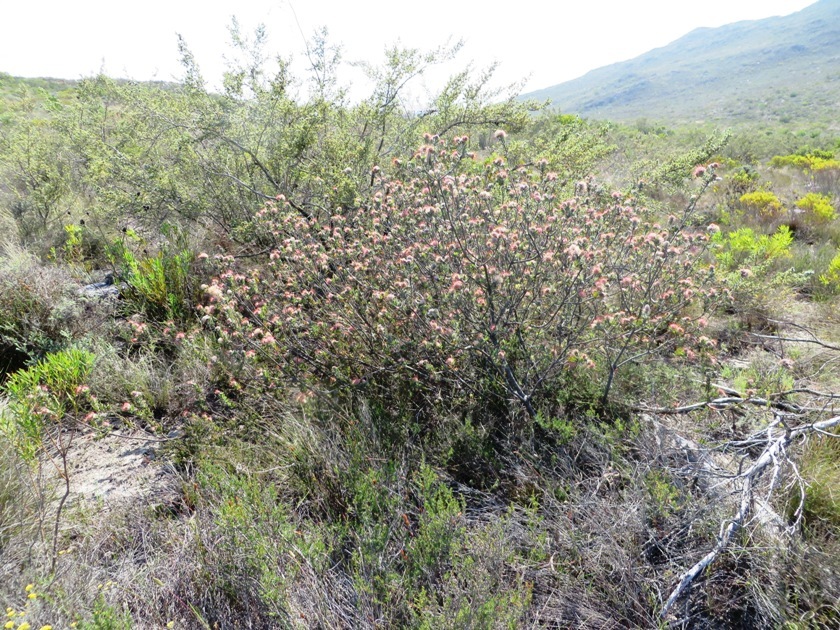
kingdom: Plantae
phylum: Tracheophyta
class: Magnoliopsida
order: Proteales
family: Proteaceae
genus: Leucospermum
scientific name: Leucospermum calligerum
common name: Arid pincushion
